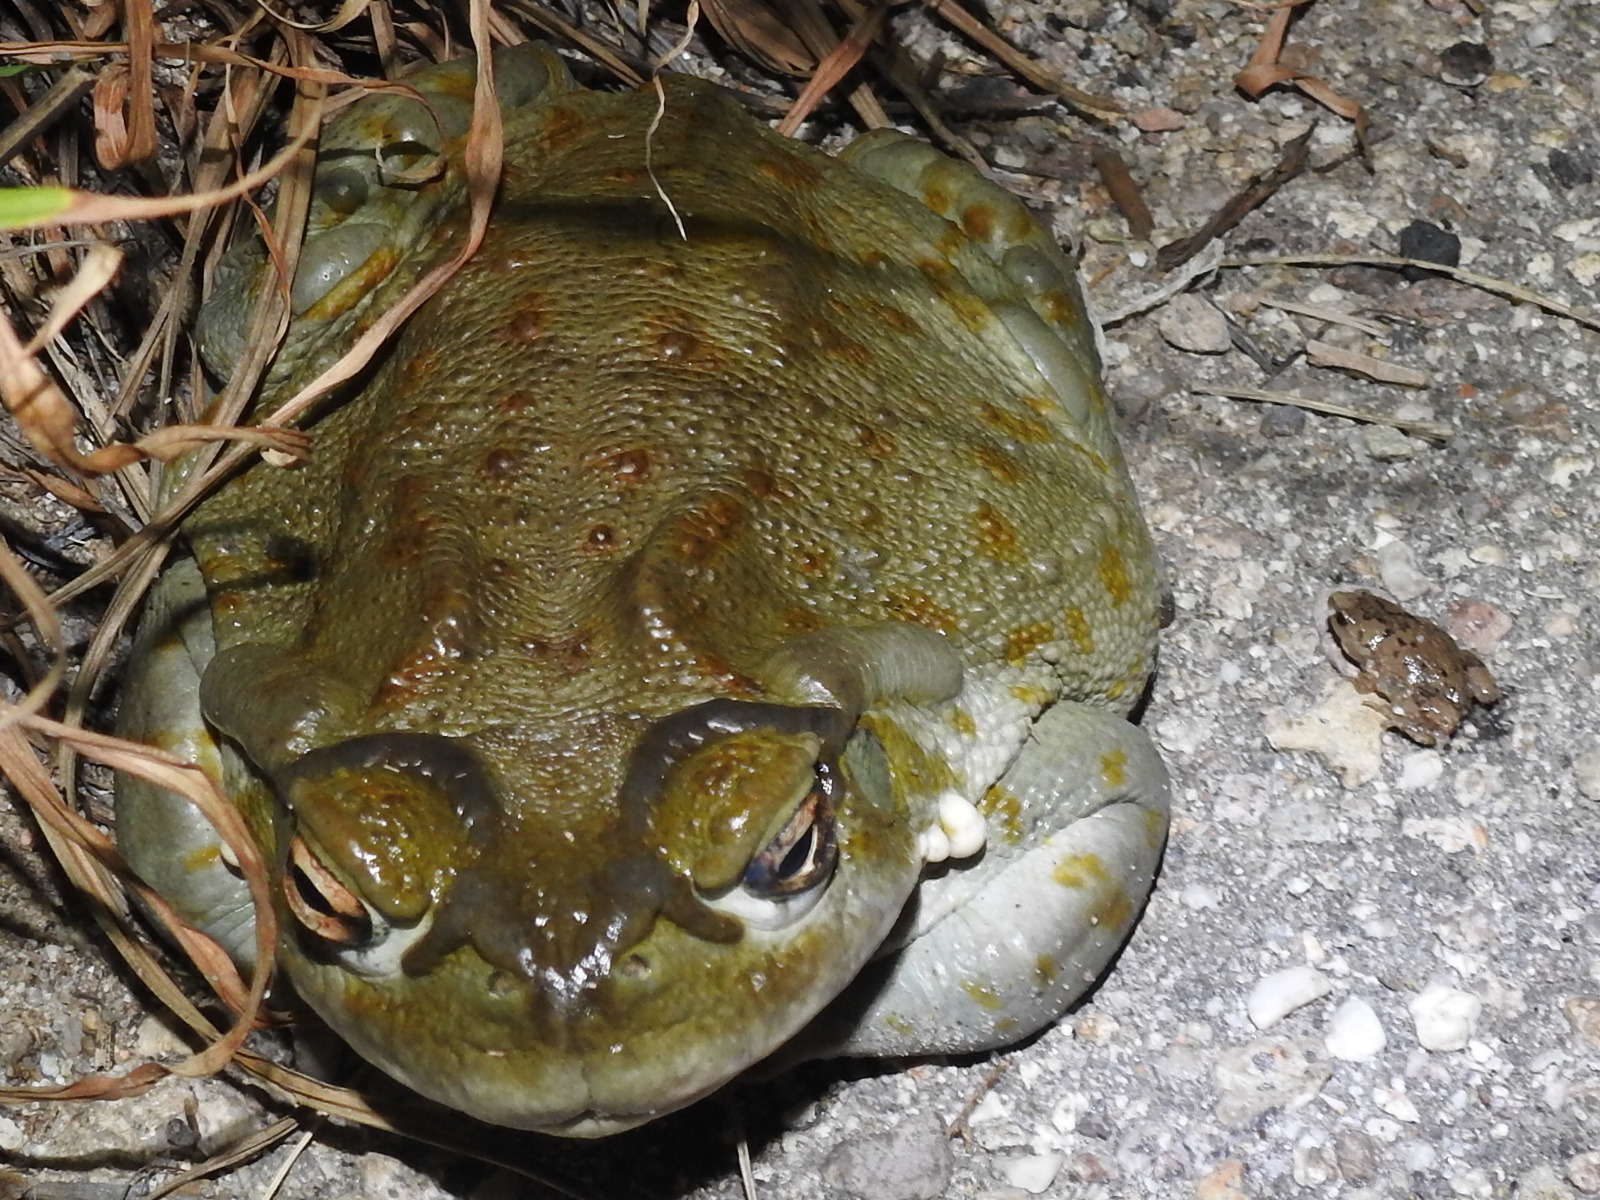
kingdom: Animalia
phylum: Chordata
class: Amphibia
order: Anura
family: Microhylidae
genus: Gastrophryne
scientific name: Gastrophryne mazatlanensis
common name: Sinaloan narrow-mouthed toad
